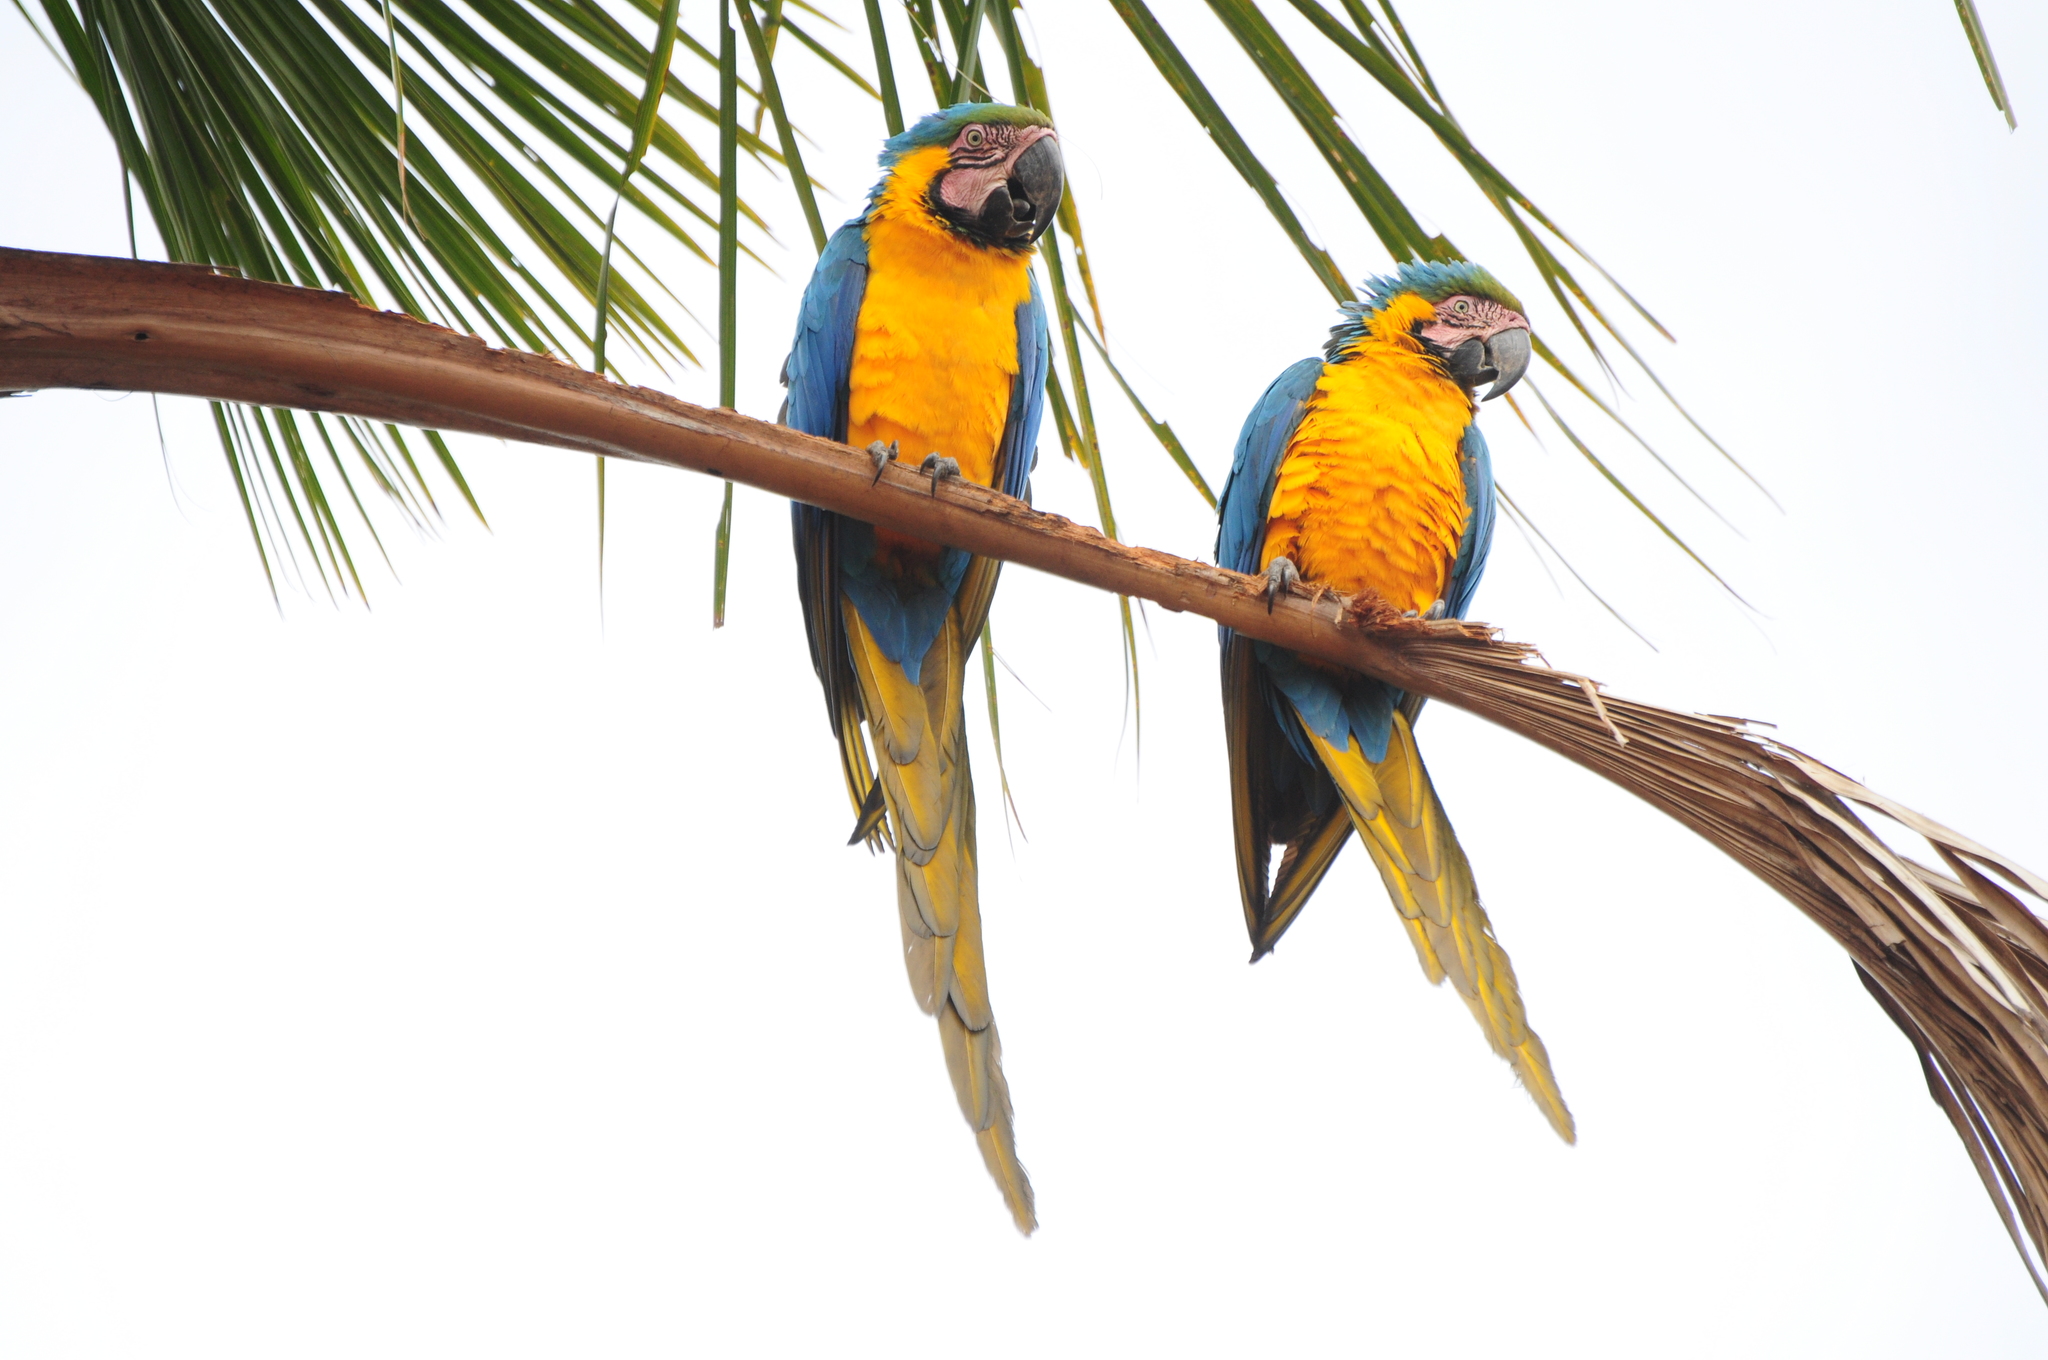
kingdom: Animalia
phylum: Chordata
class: Aves
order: Psittaciformes
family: Psittacidae
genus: Ara
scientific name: Ara ararauna
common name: Blue-and-yellow macaw
